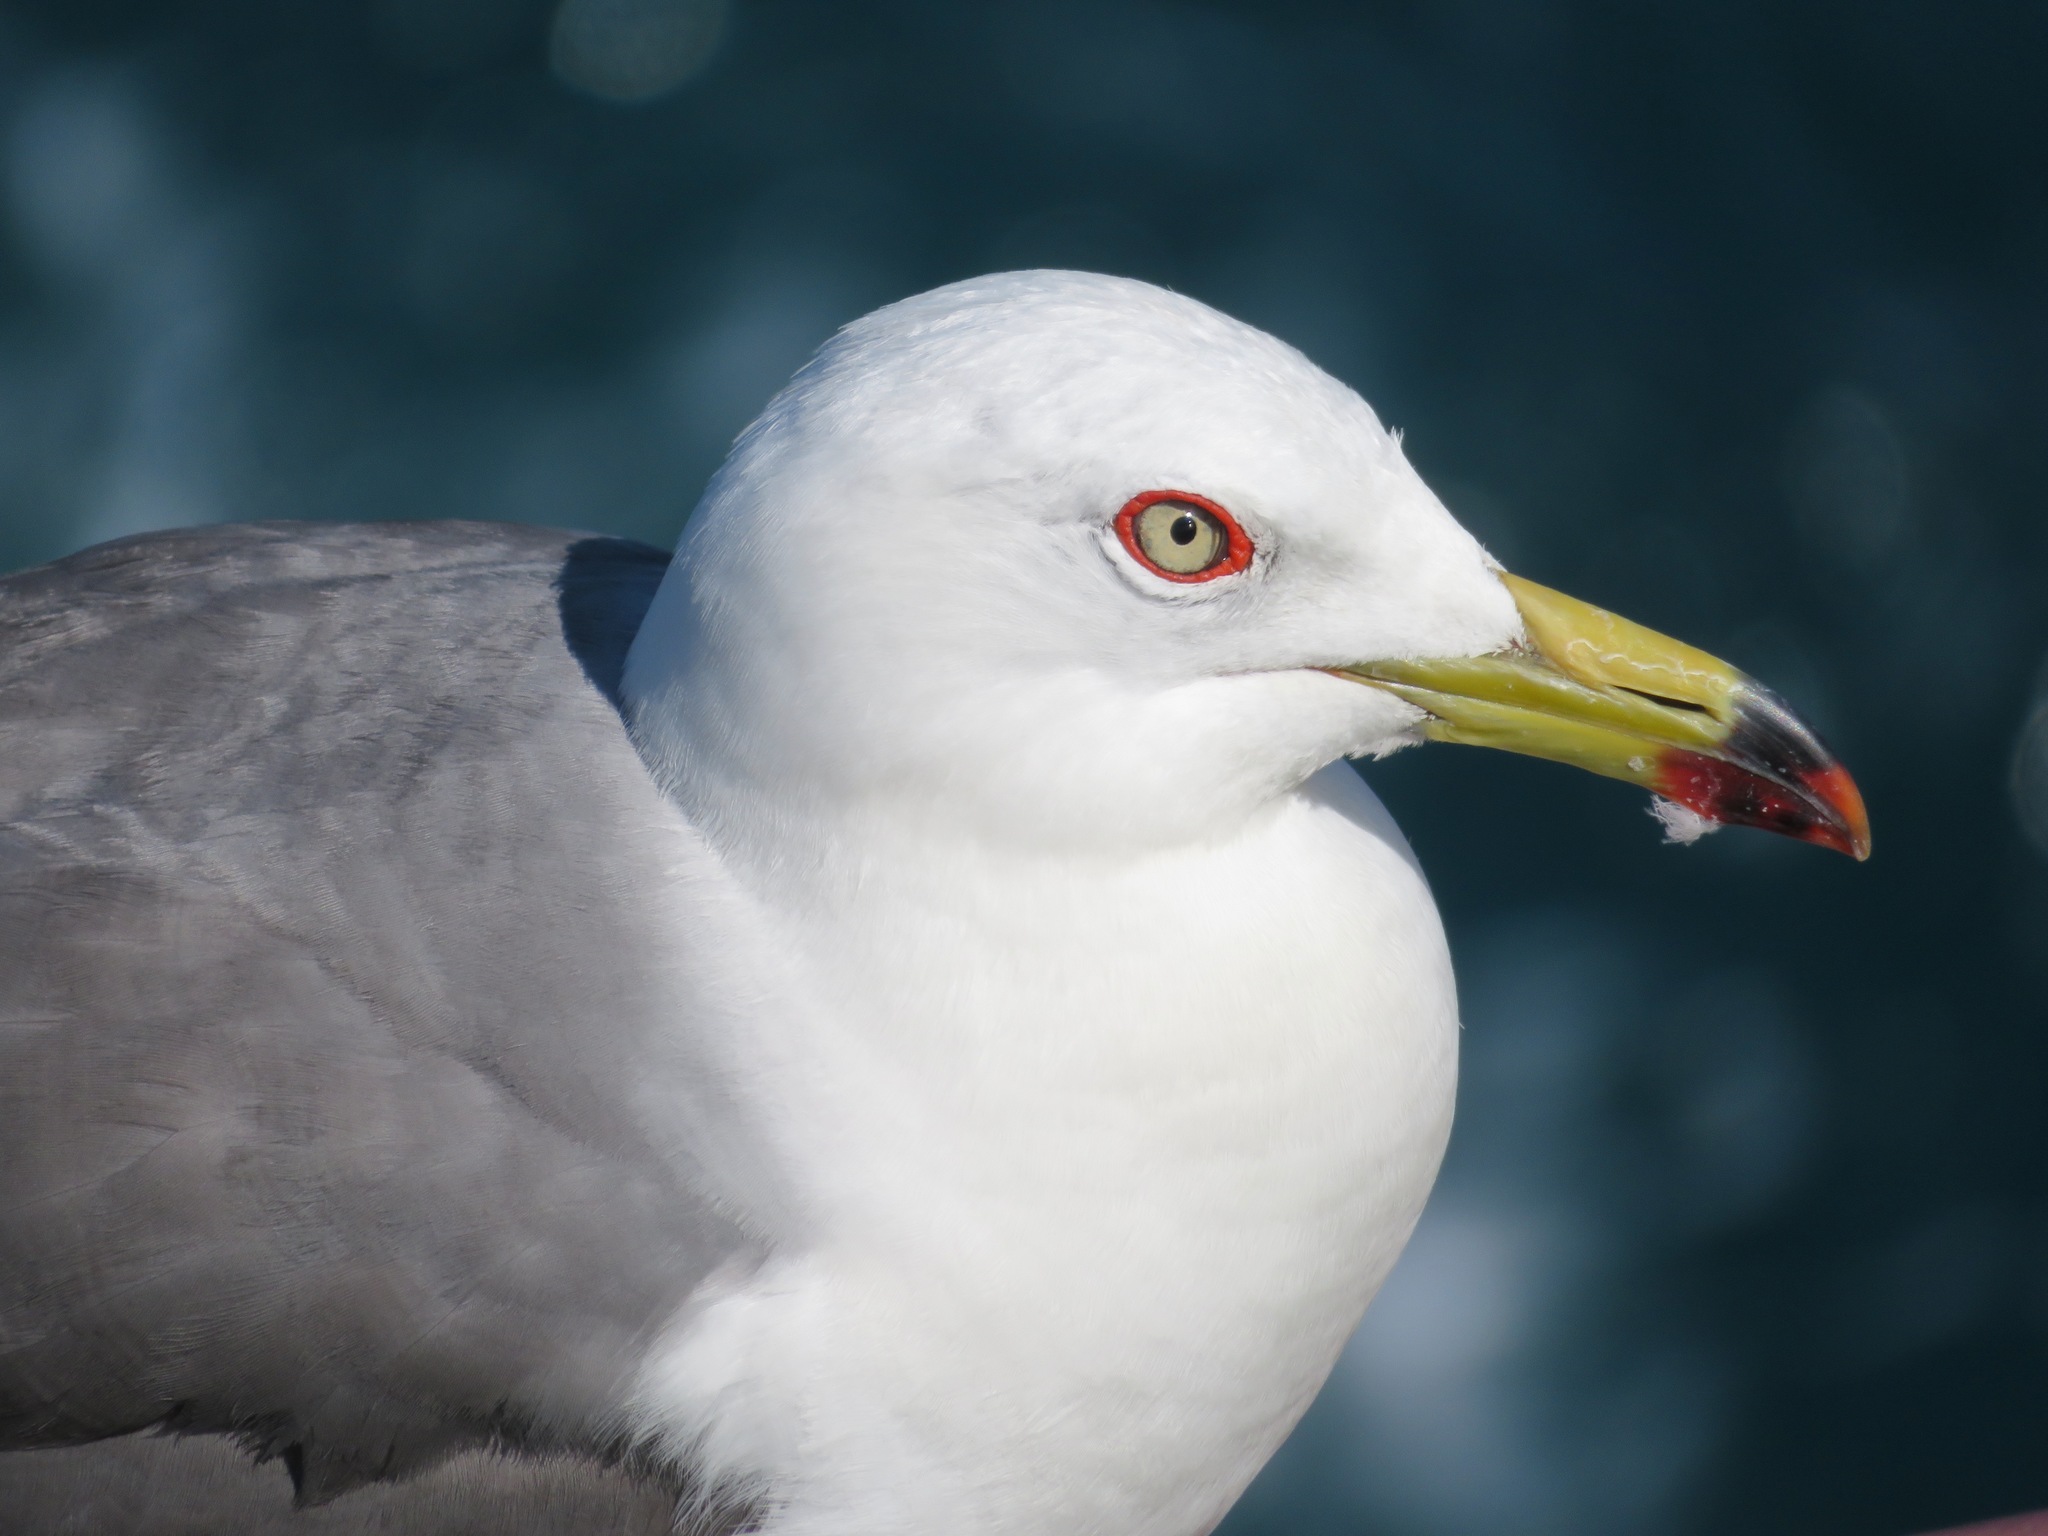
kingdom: Animalia
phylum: Chordata
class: Aves
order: Charadriiformes
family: Laridae
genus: Larus
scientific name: Larus crassirostris
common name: Black-tailed gull
